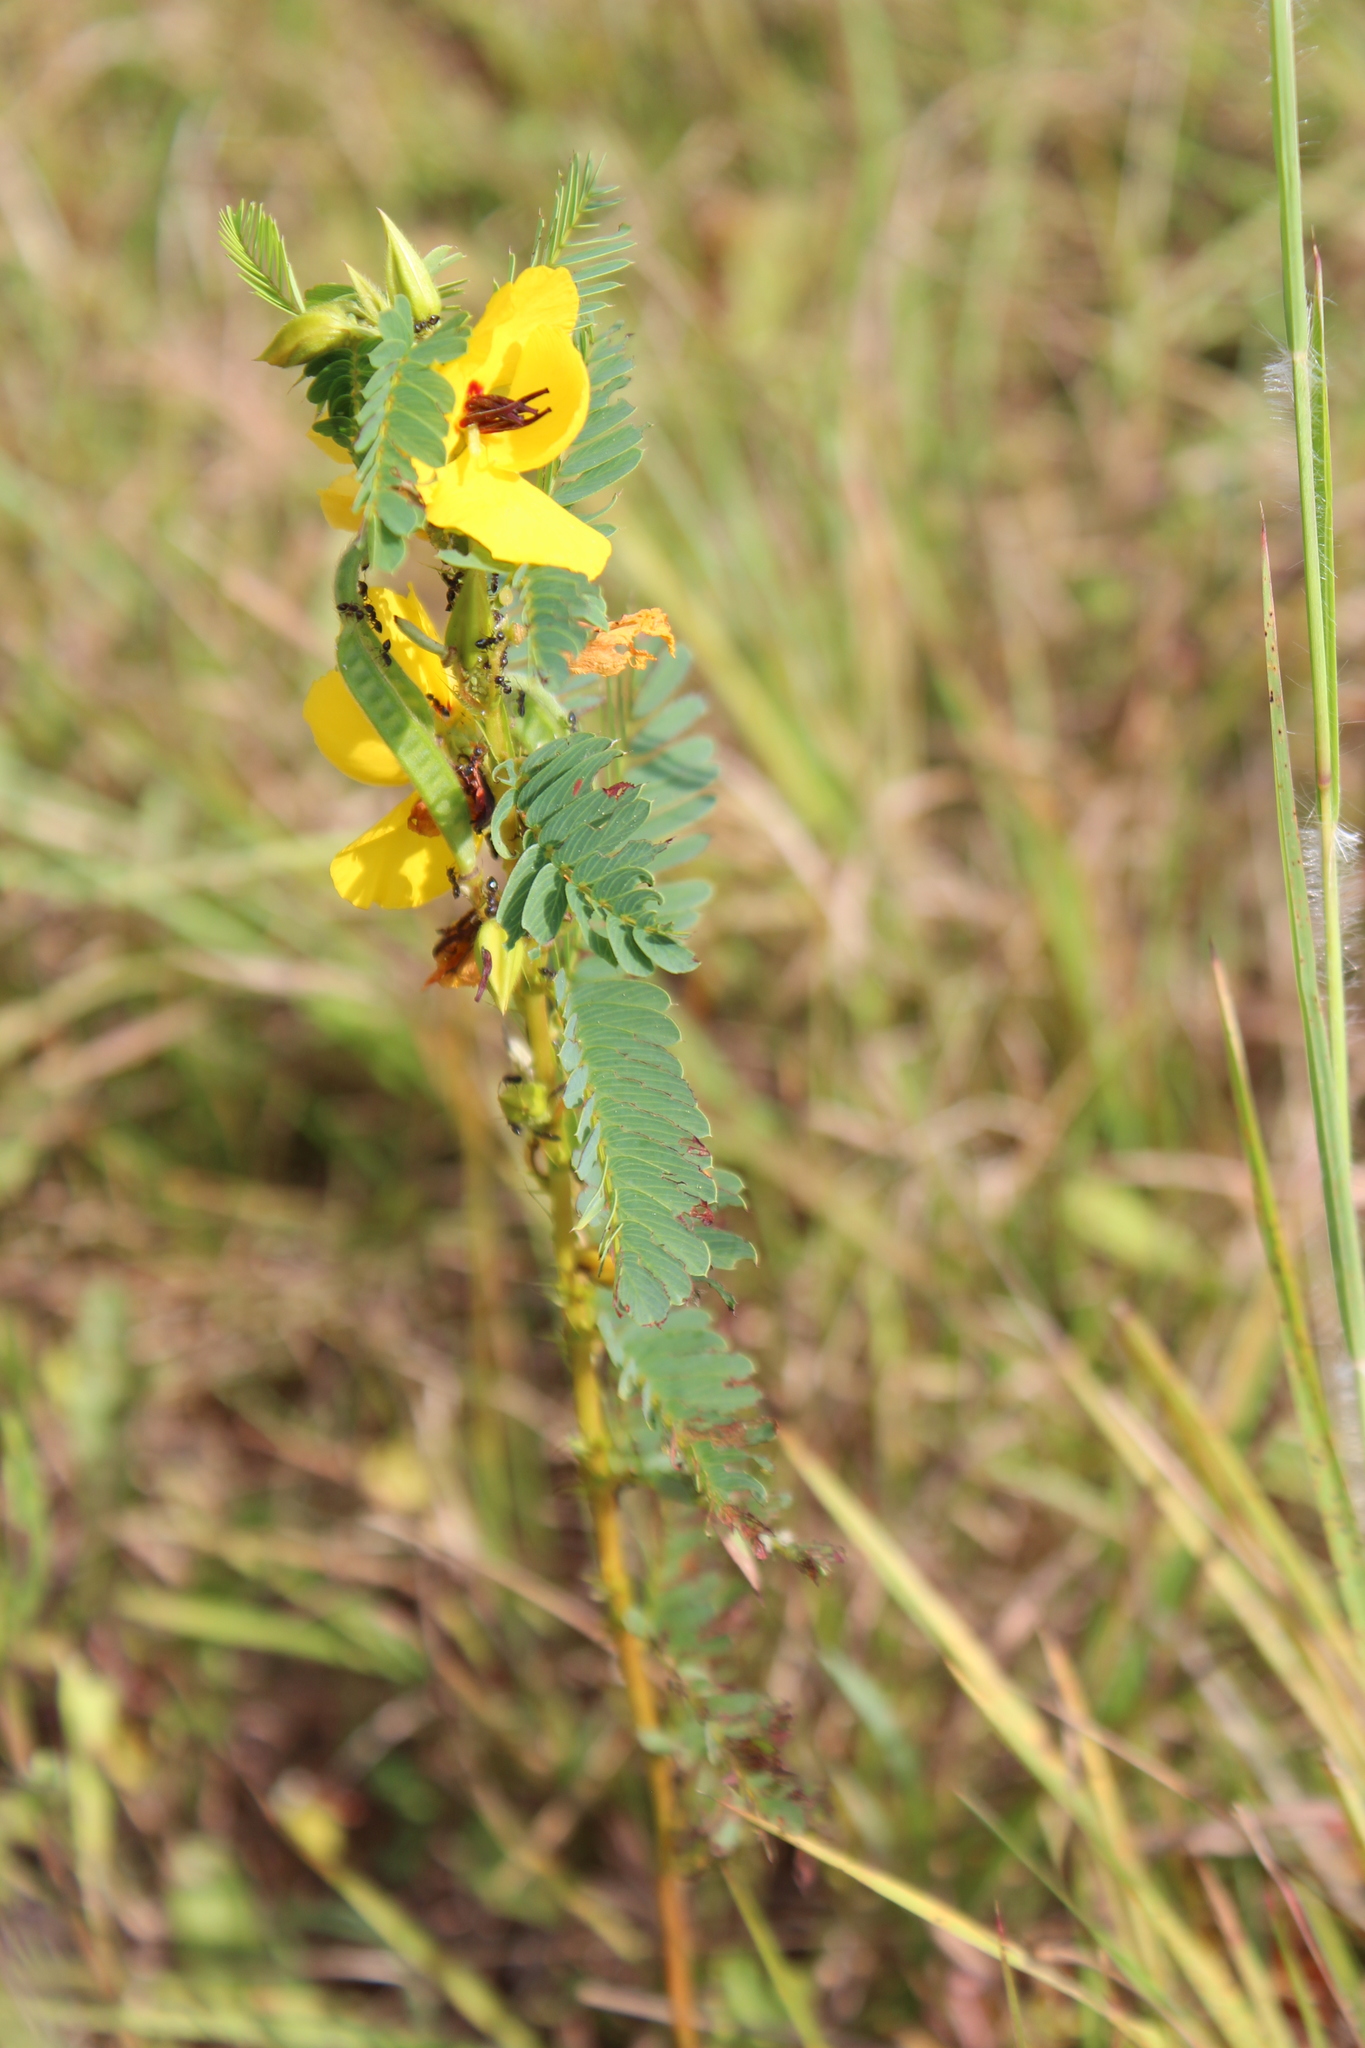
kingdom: Plantae
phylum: Tracheophyta
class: Magnoliopsida
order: Fabales
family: Fabaceae
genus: Chamaecrista
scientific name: Chamaecrista fasciculata
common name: Golden cassia
